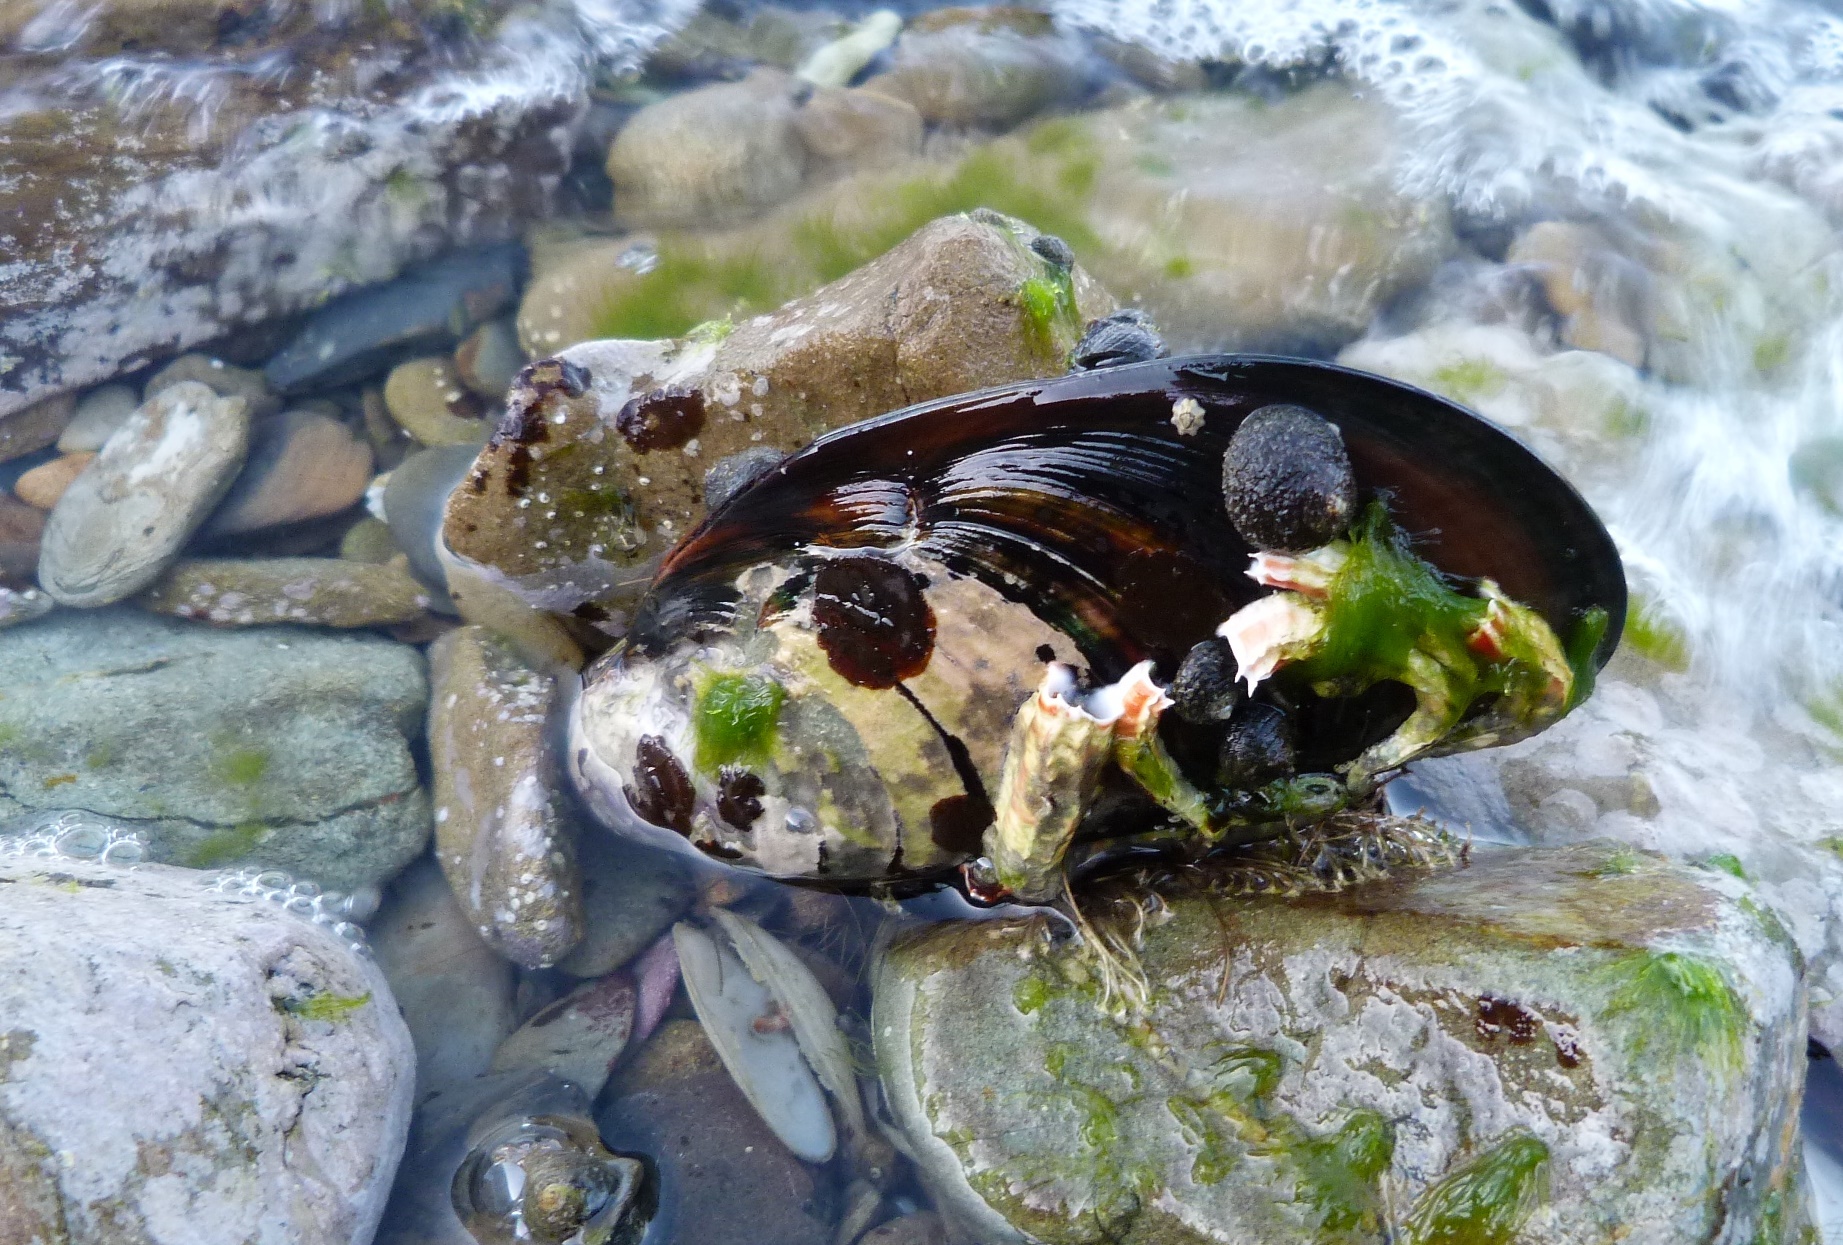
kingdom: Animalia
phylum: Mollusca
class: Bivalvia
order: Mytilida
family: Mytilidae
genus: Perna
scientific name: Perna canaliculus
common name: New zealand greenshelltm
